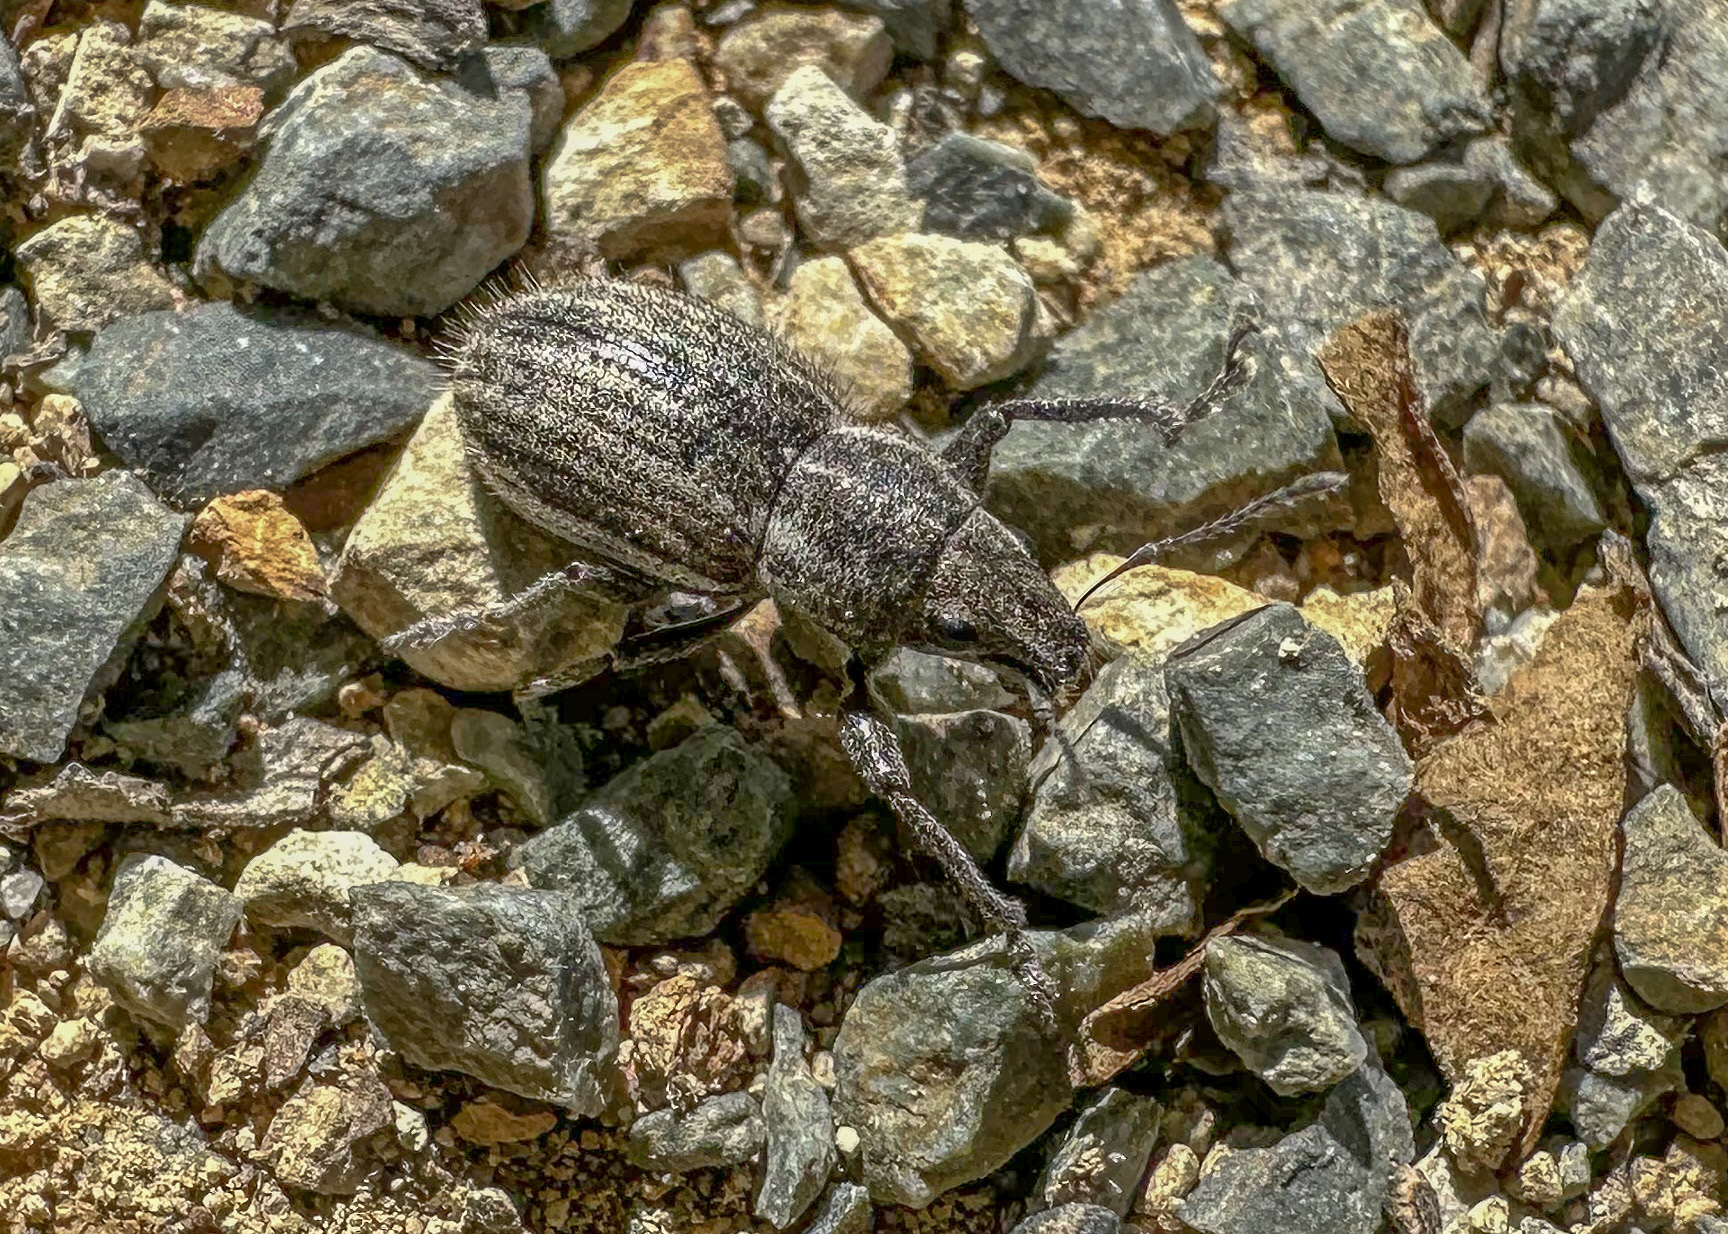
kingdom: Animalia
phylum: Arthropoda
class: Insecta
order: Coleoptera
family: Curculionidae
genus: Naupactus
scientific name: Naupactus leucoloma
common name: Whitefringed beetle
